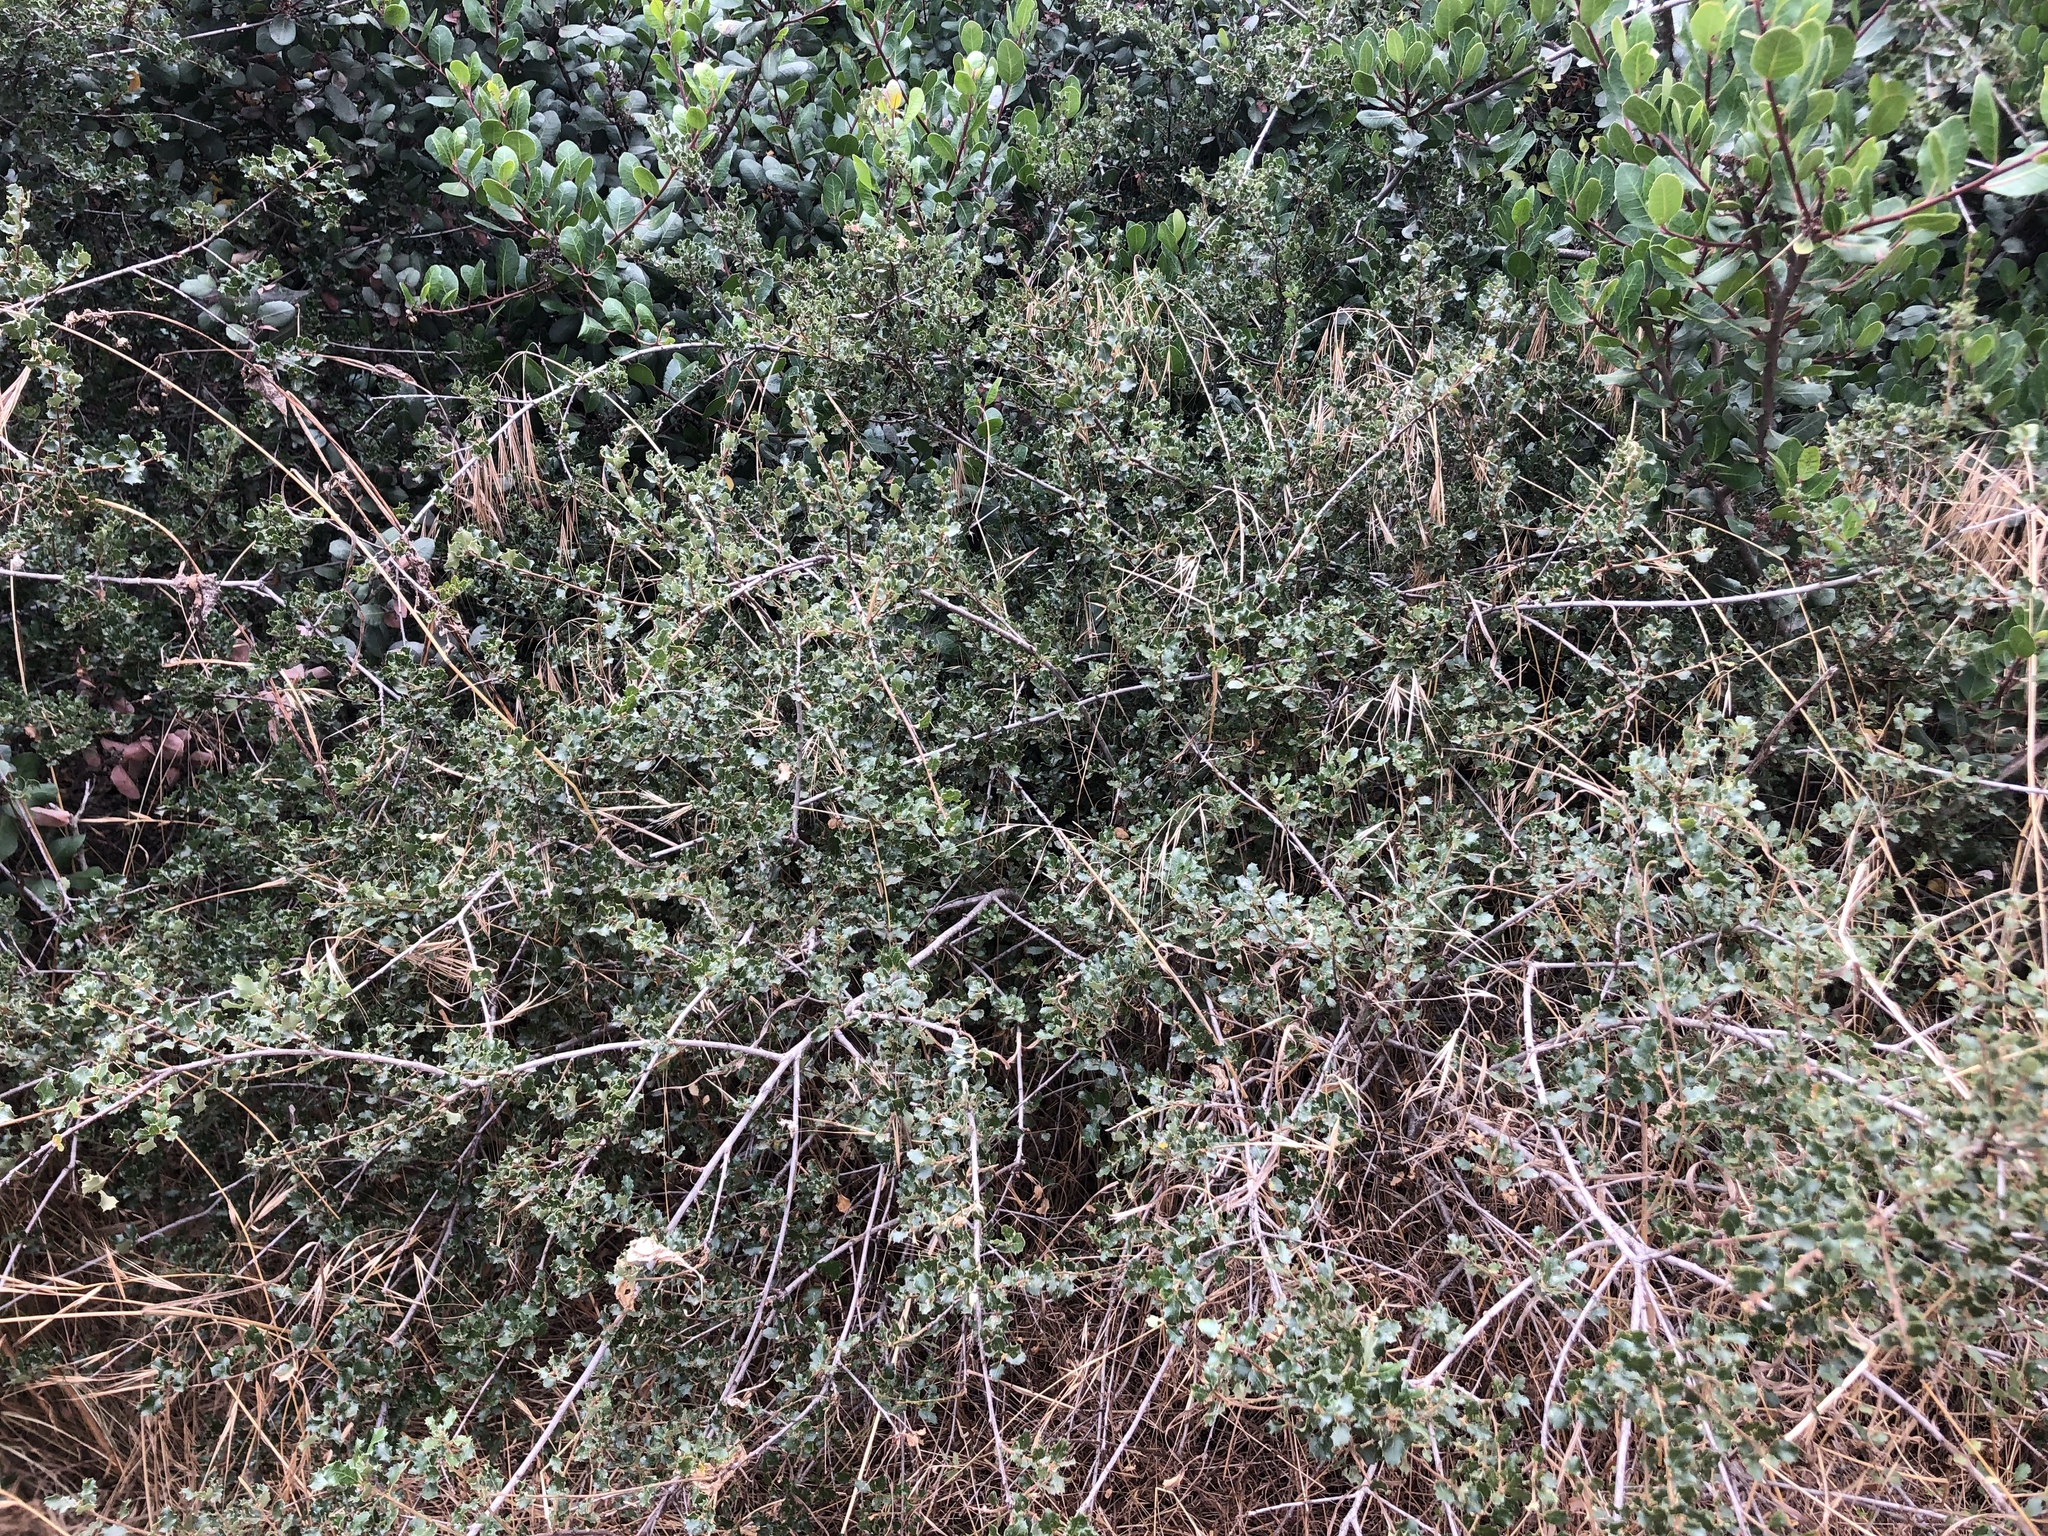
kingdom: Plantae
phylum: Tracheophyta
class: Magnoliopsida
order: Fagales
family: Fagaceae
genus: Quercus
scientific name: Quercus dumosa
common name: Coastal sage scrub oak
